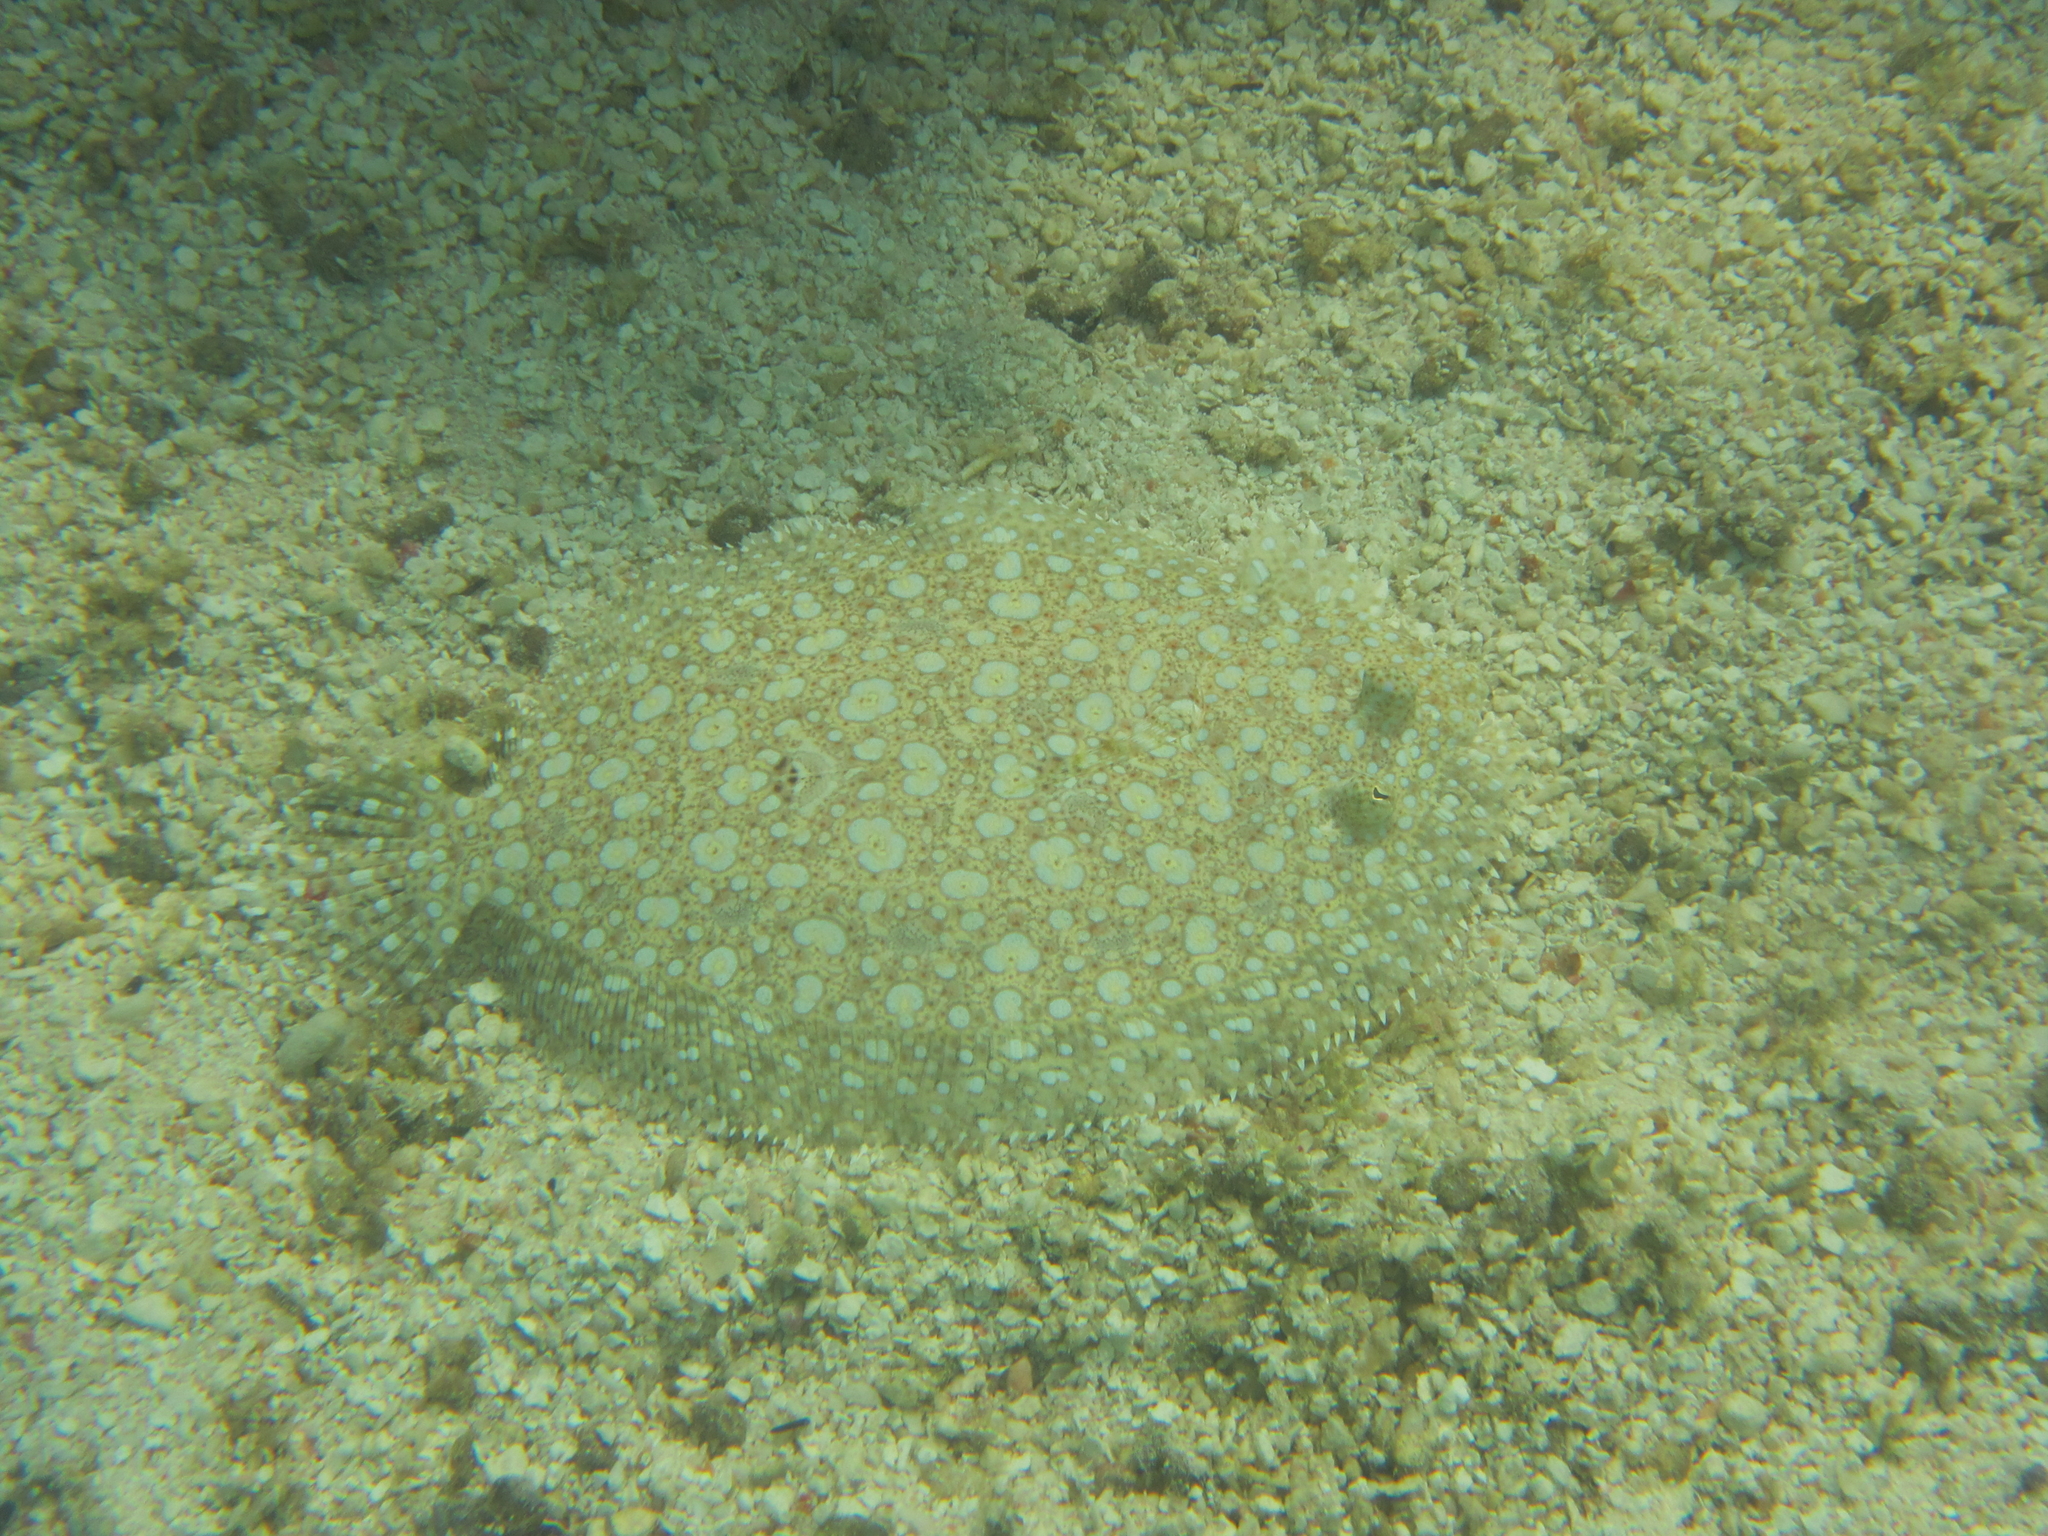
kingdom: Animalia
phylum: Chordata
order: Pleuronectiformes
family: Bothidae
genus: Bothus
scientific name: Bothus mancus
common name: Flowery flounder
